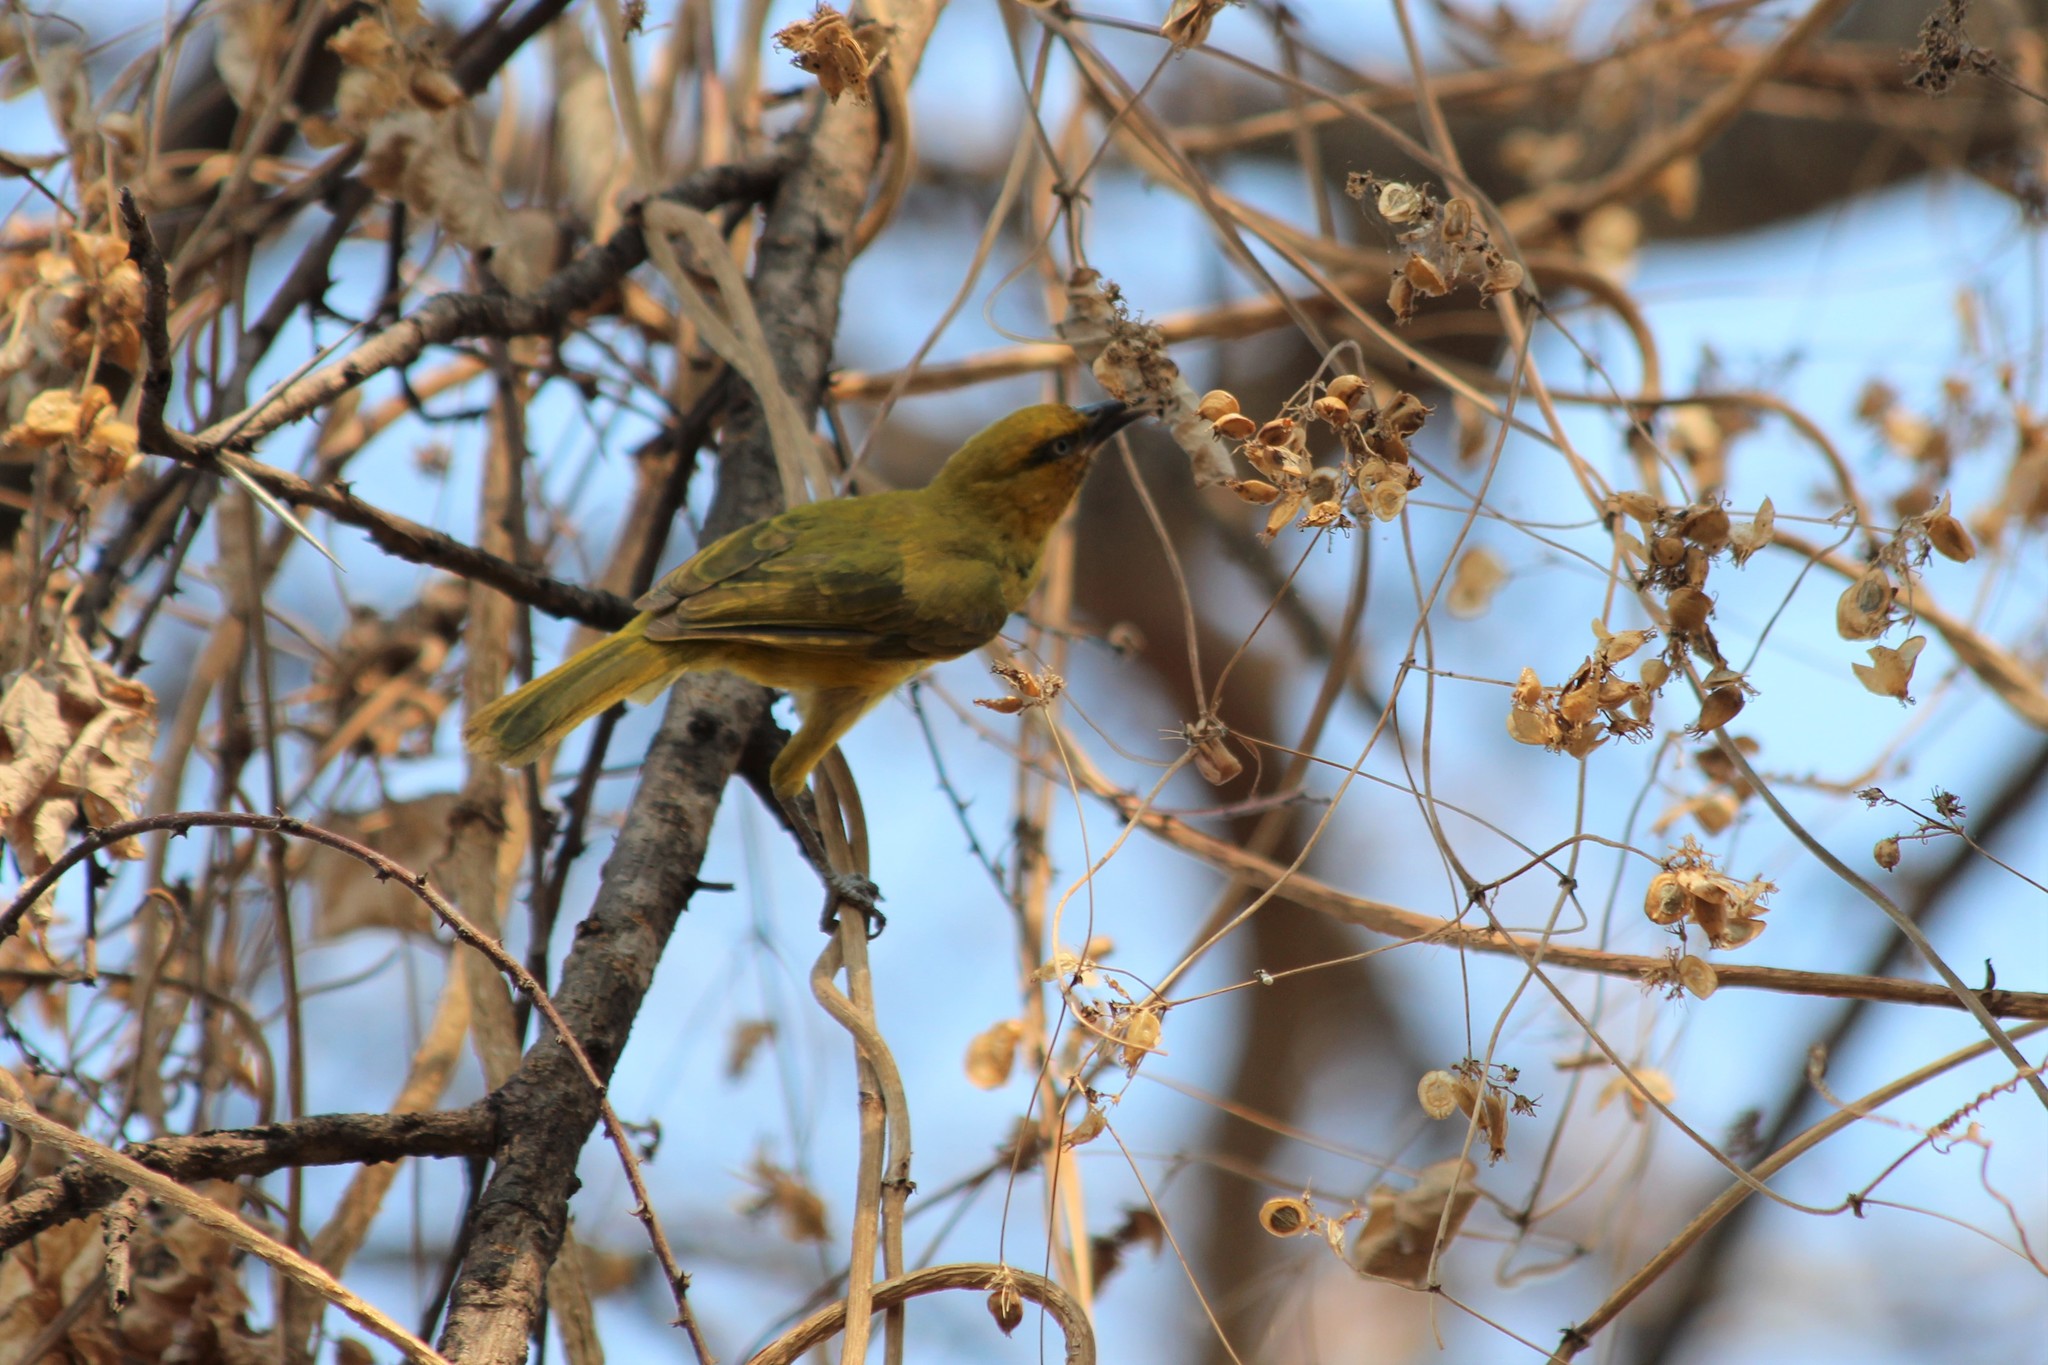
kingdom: Animalia
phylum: Chordata
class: Aves
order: Passeriformes
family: Ploceidae
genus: Ploceus
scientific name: Ploceus ocularis
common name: Spectacled weaver
